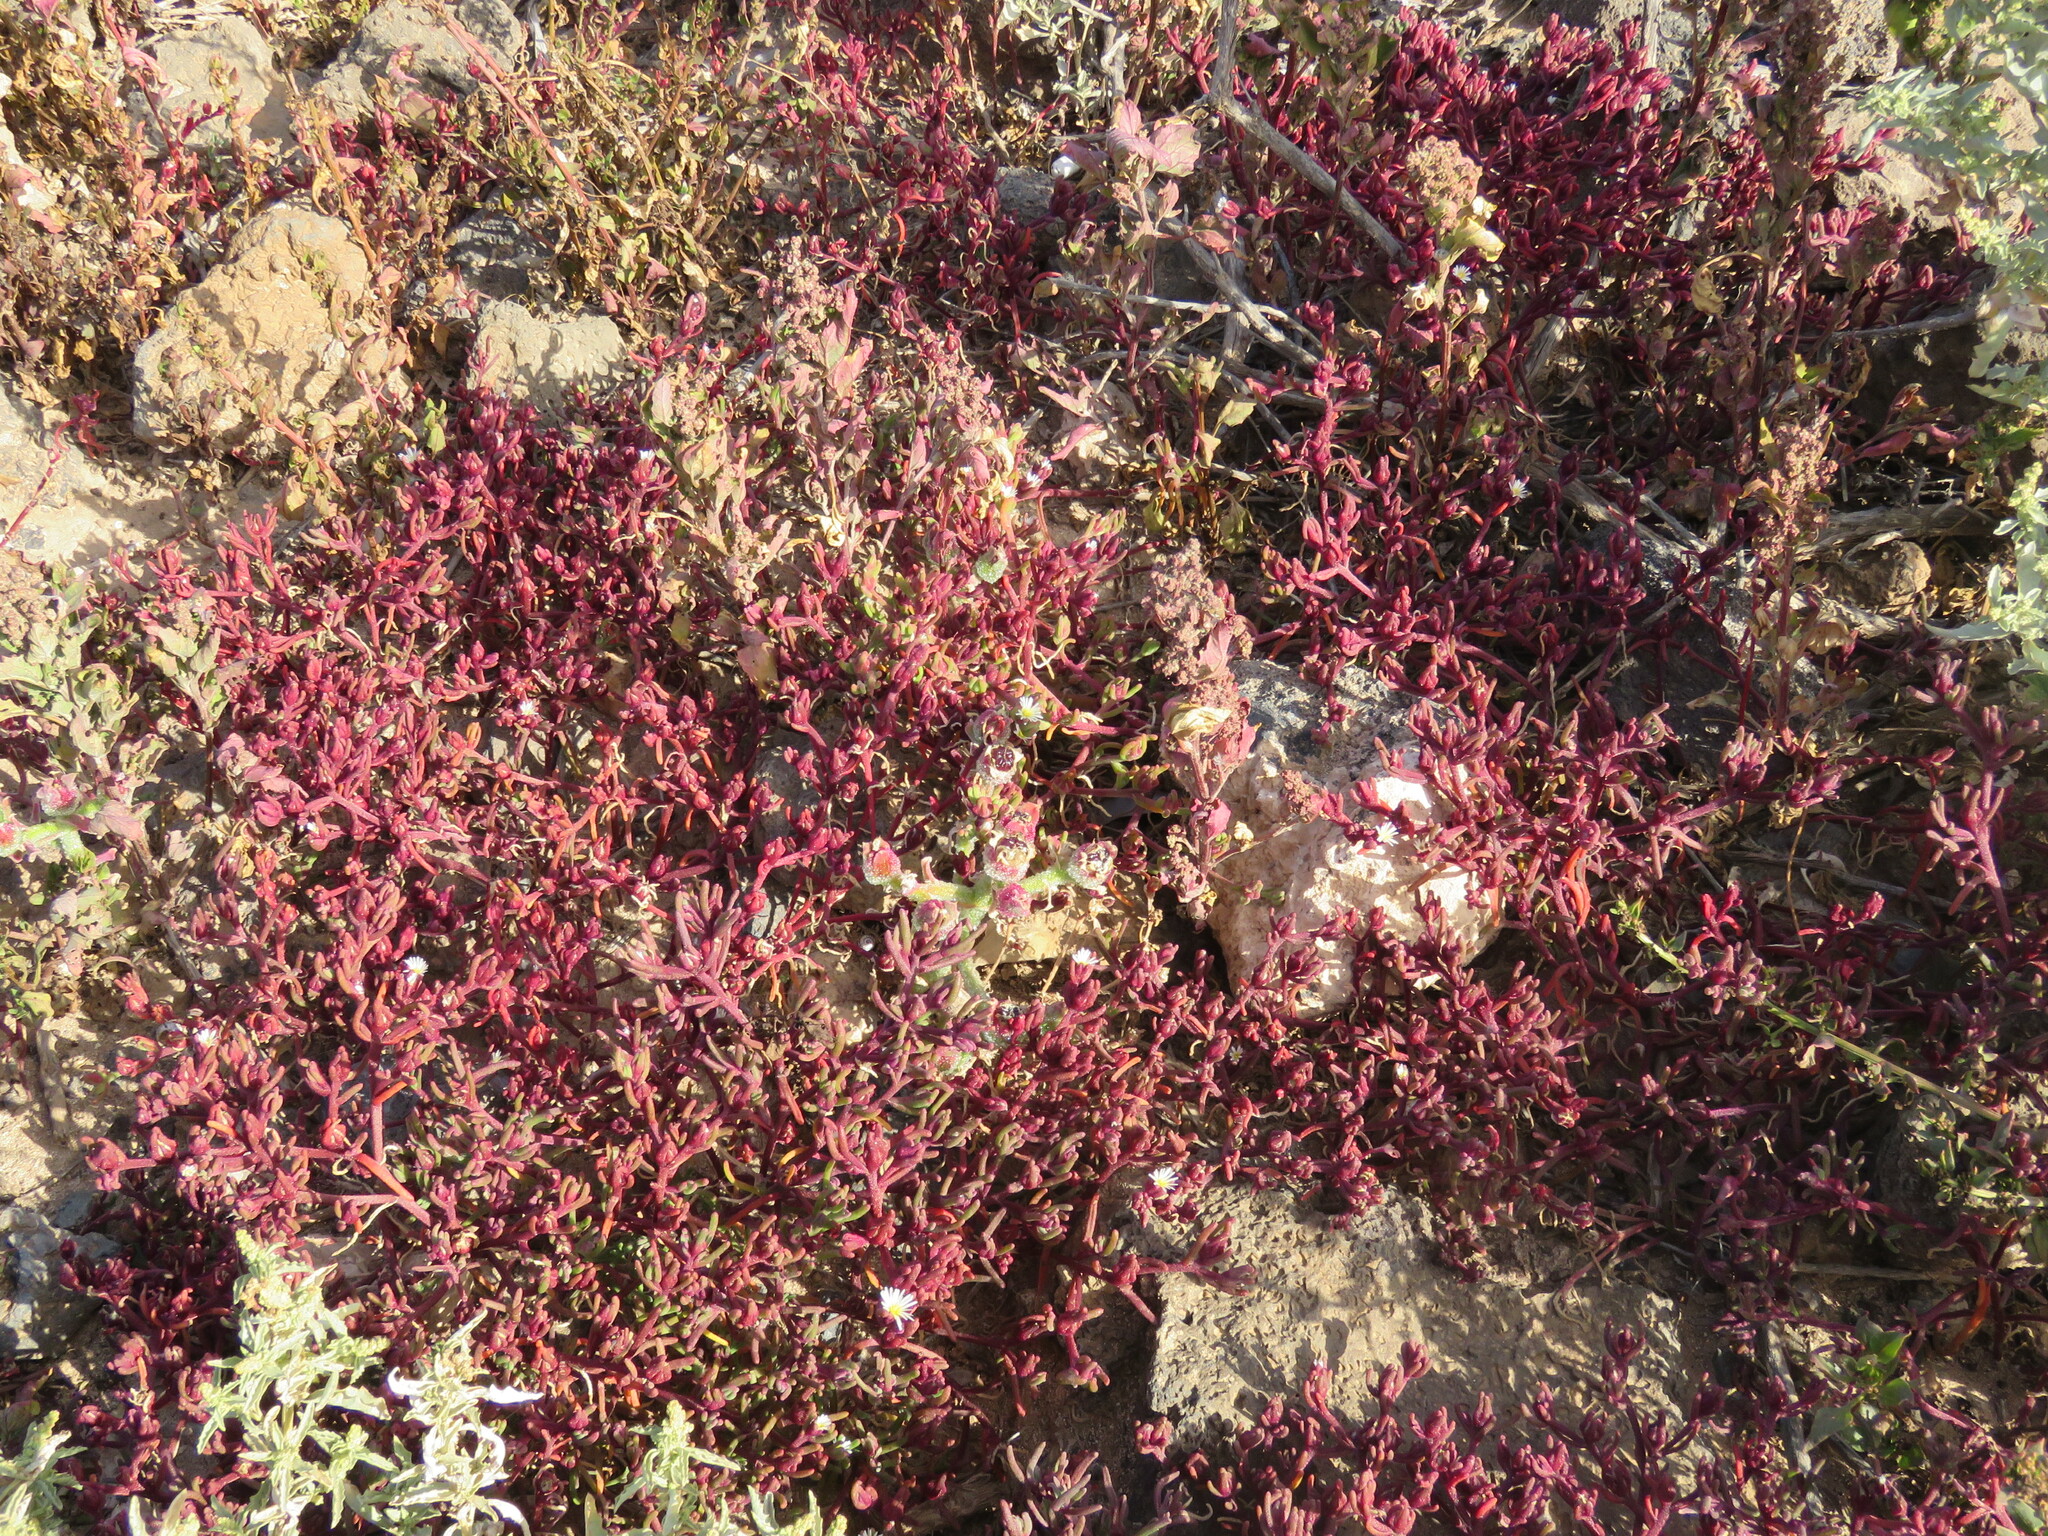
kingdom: Plantae
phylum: Tracheophyta
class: Magnoliopsida
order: Caryophyllales
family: Aizoaceae
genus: Mesembryanthemum
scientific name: Mesembryanthemum nodiflorum
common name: Slenderleaf iceplant
